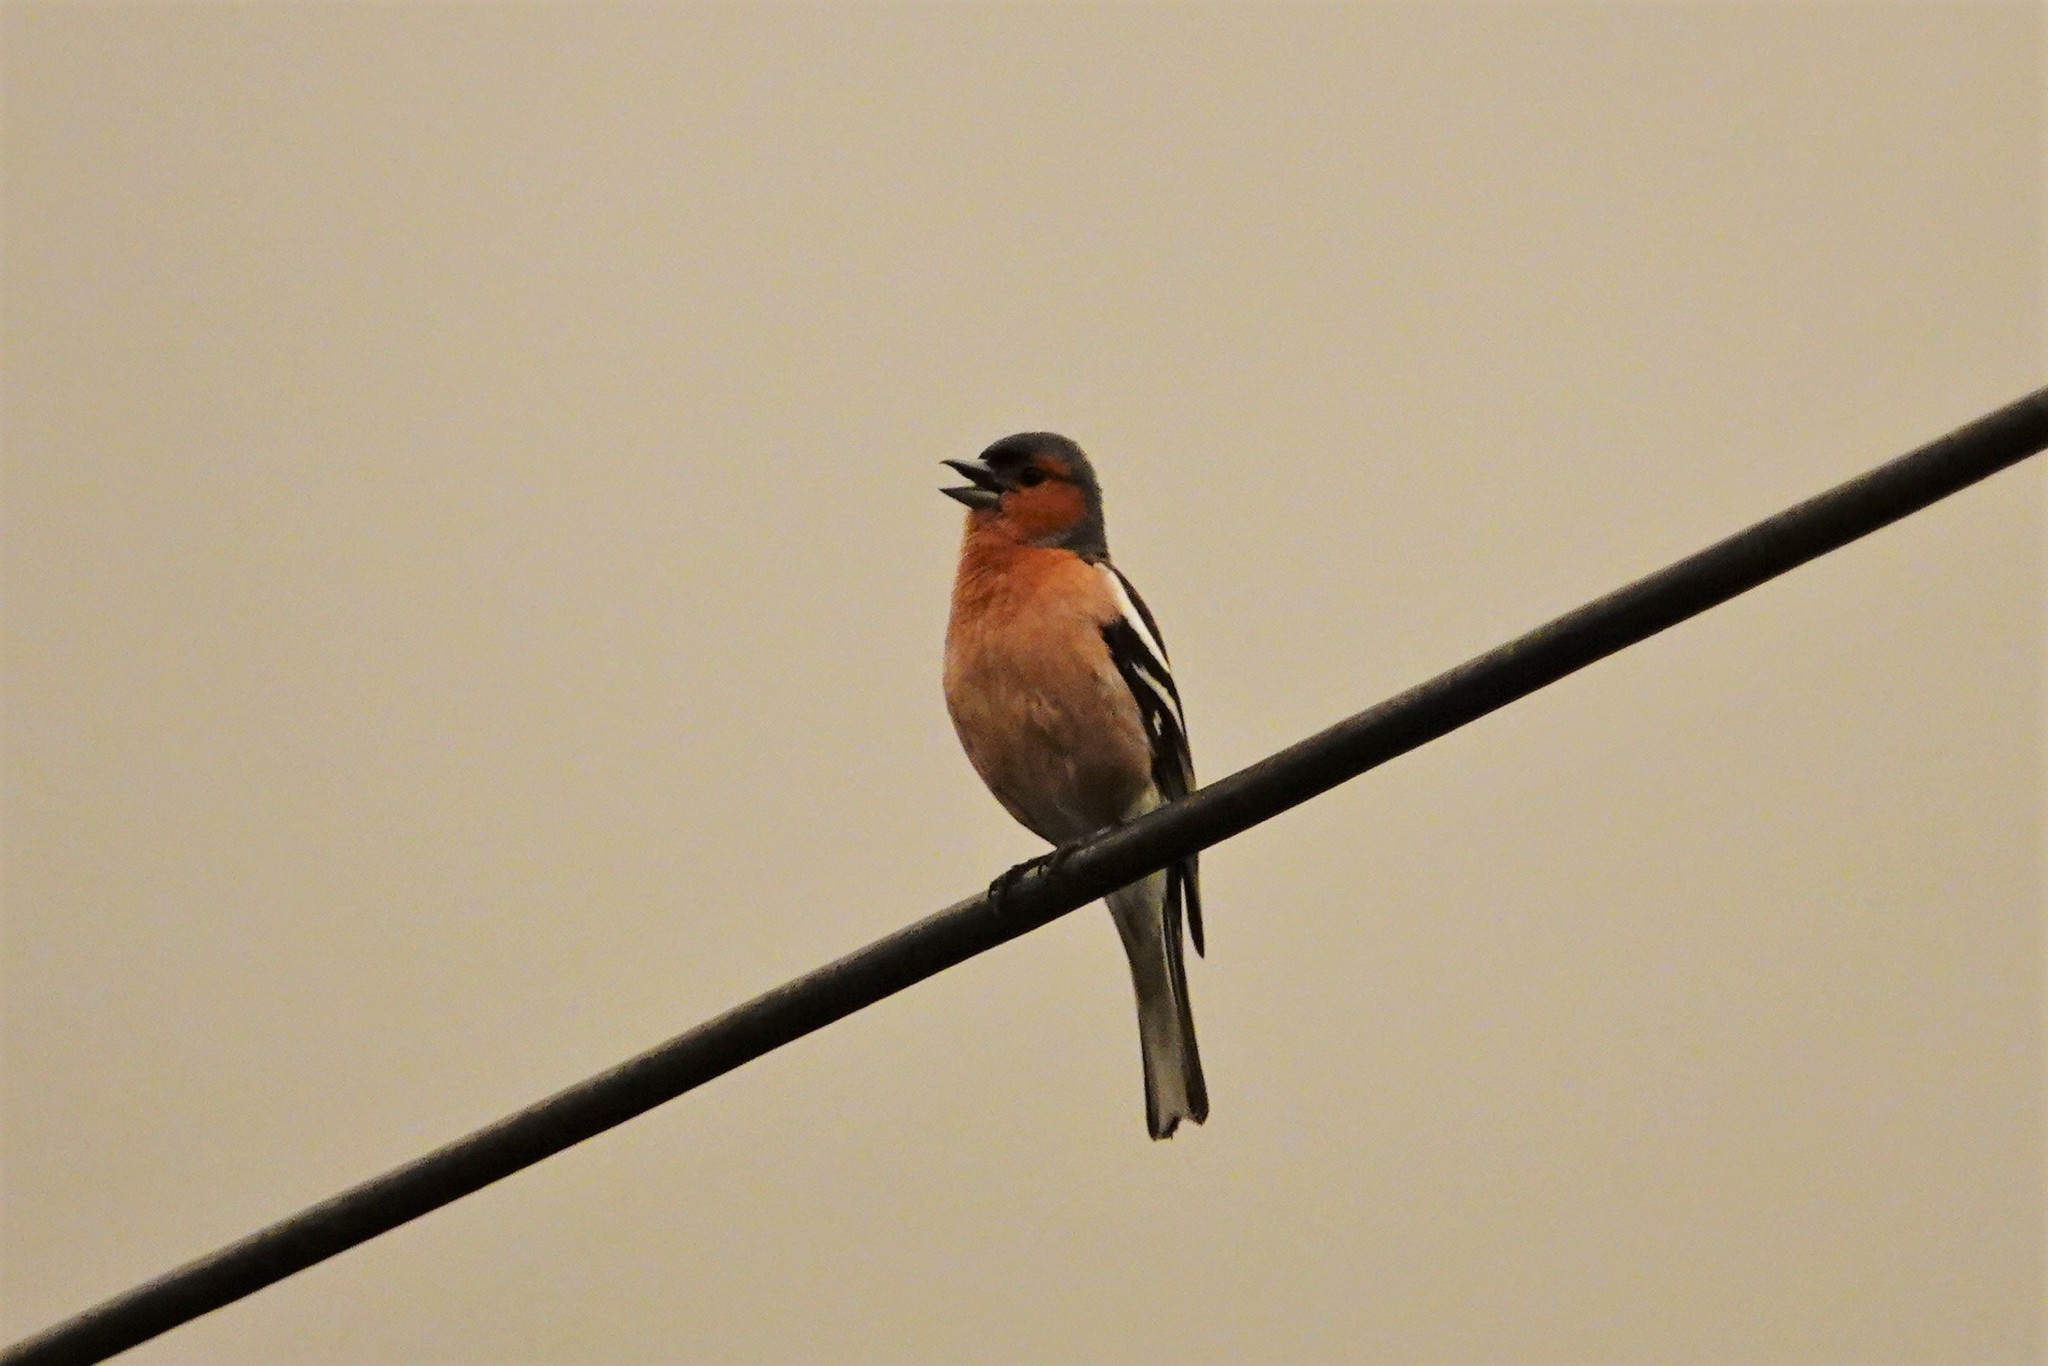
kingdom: Animalia
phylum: Chordata
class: Aves
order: Passeriformes
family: Fringillidae
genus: Fringilla
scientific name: Fringilla coelebs
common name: Common chaffinch
